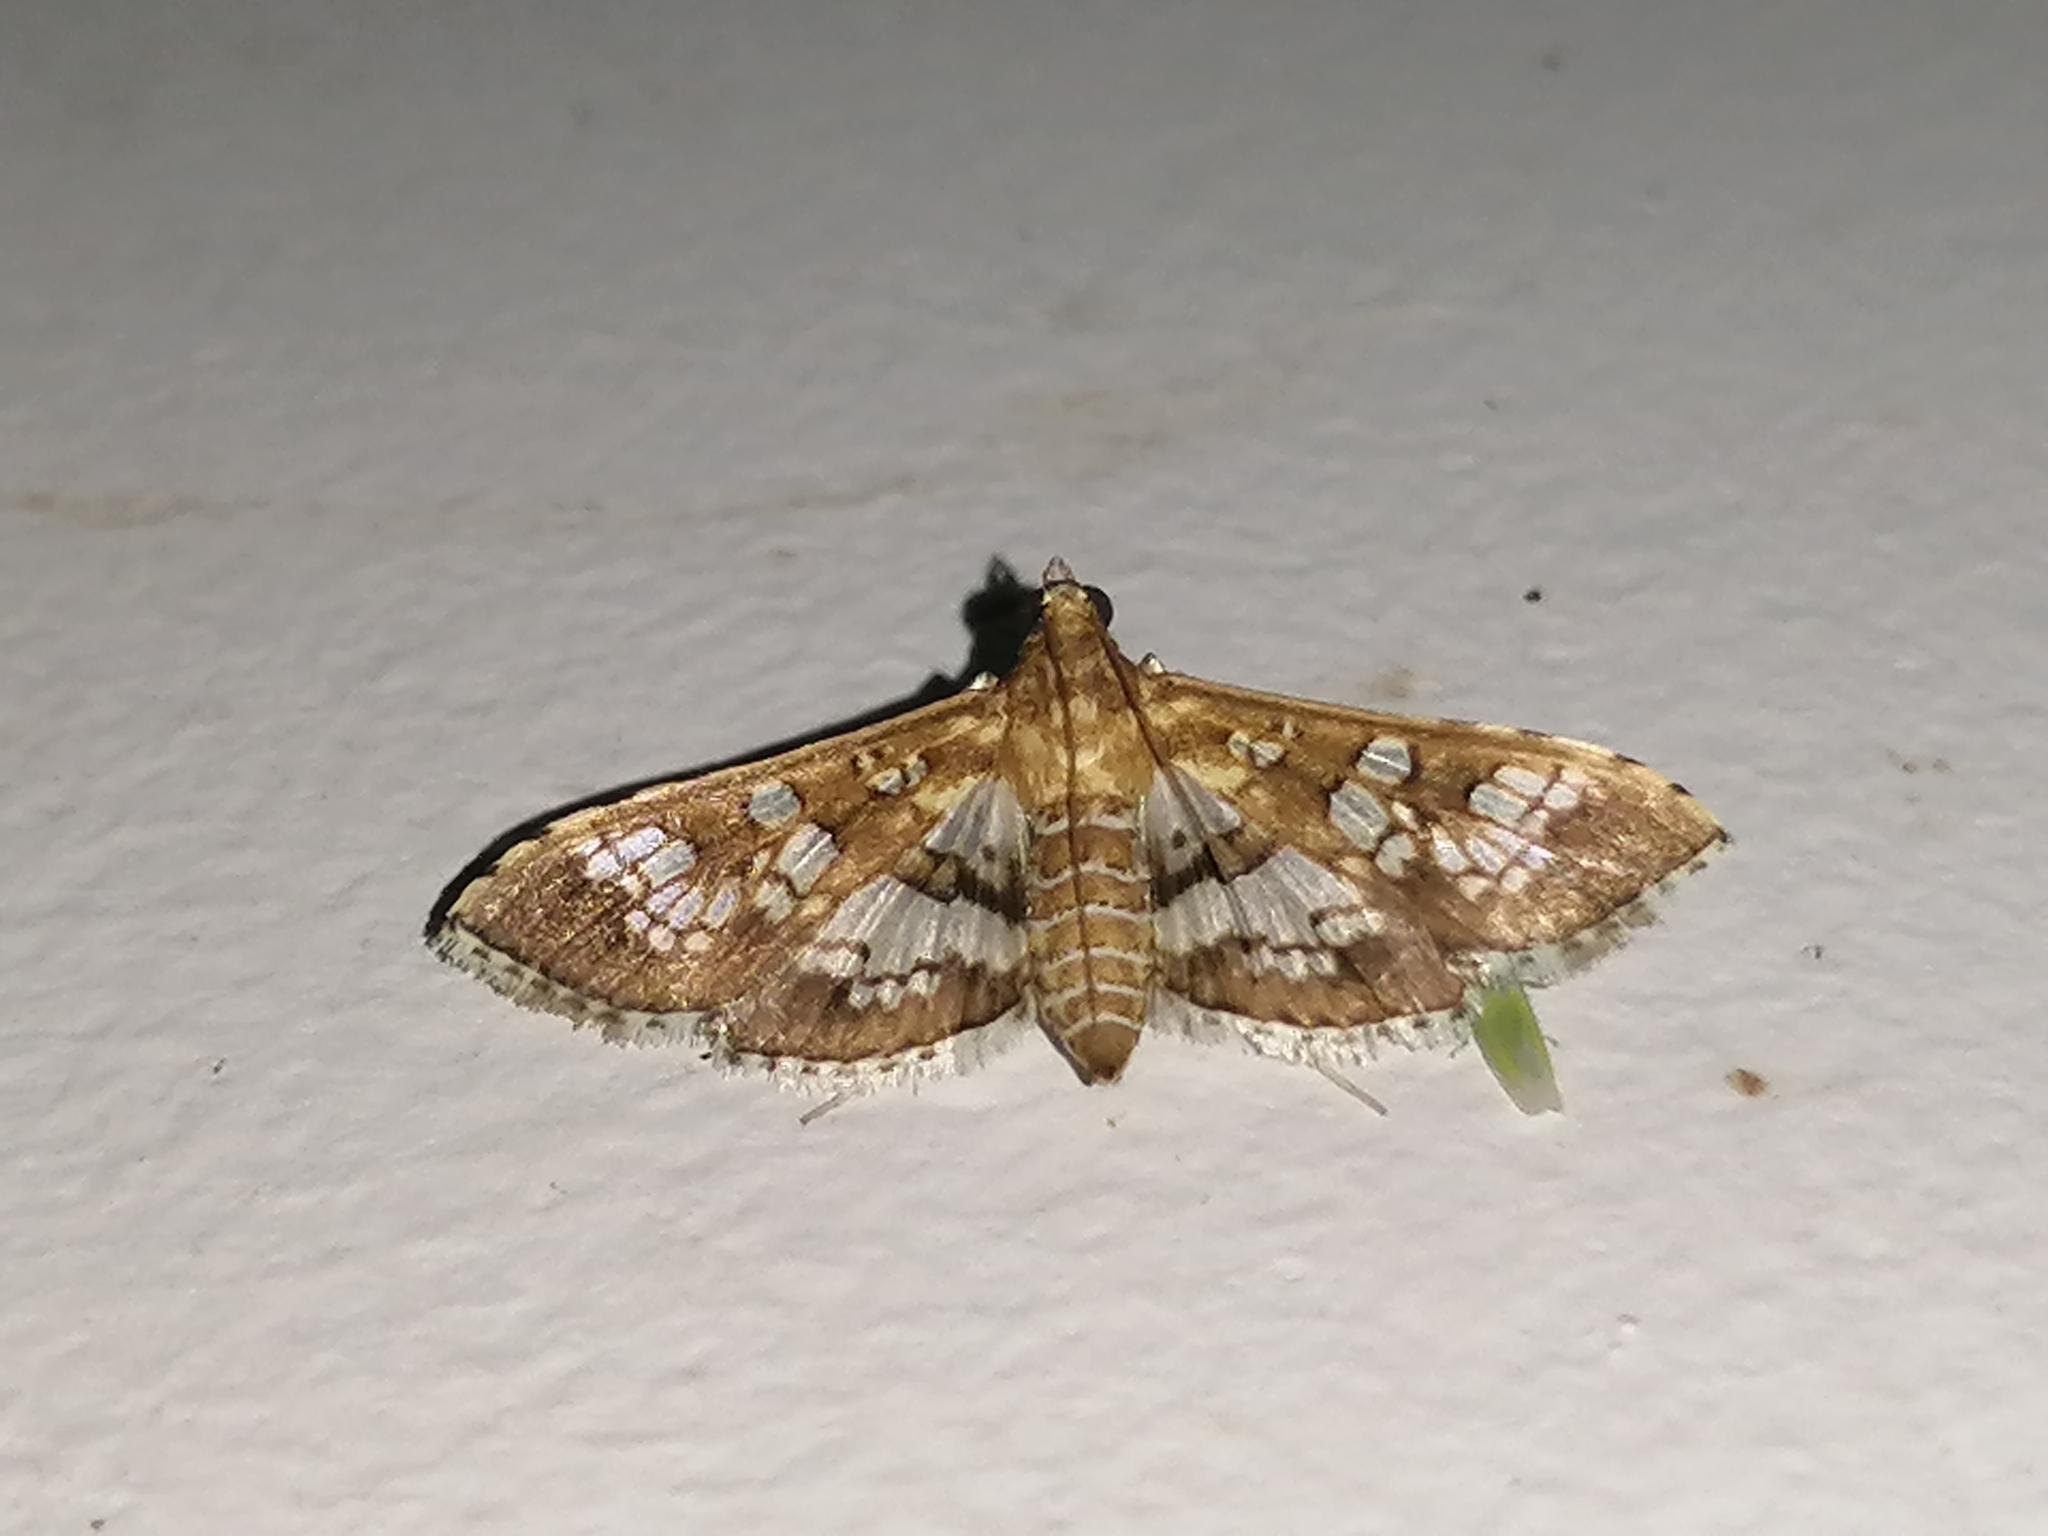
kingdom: Animalia
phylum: Arthropoda
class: Insecta
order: Lepidoptera
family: Crambidae
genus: Sameodes
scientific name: Sameodes cancellalis
